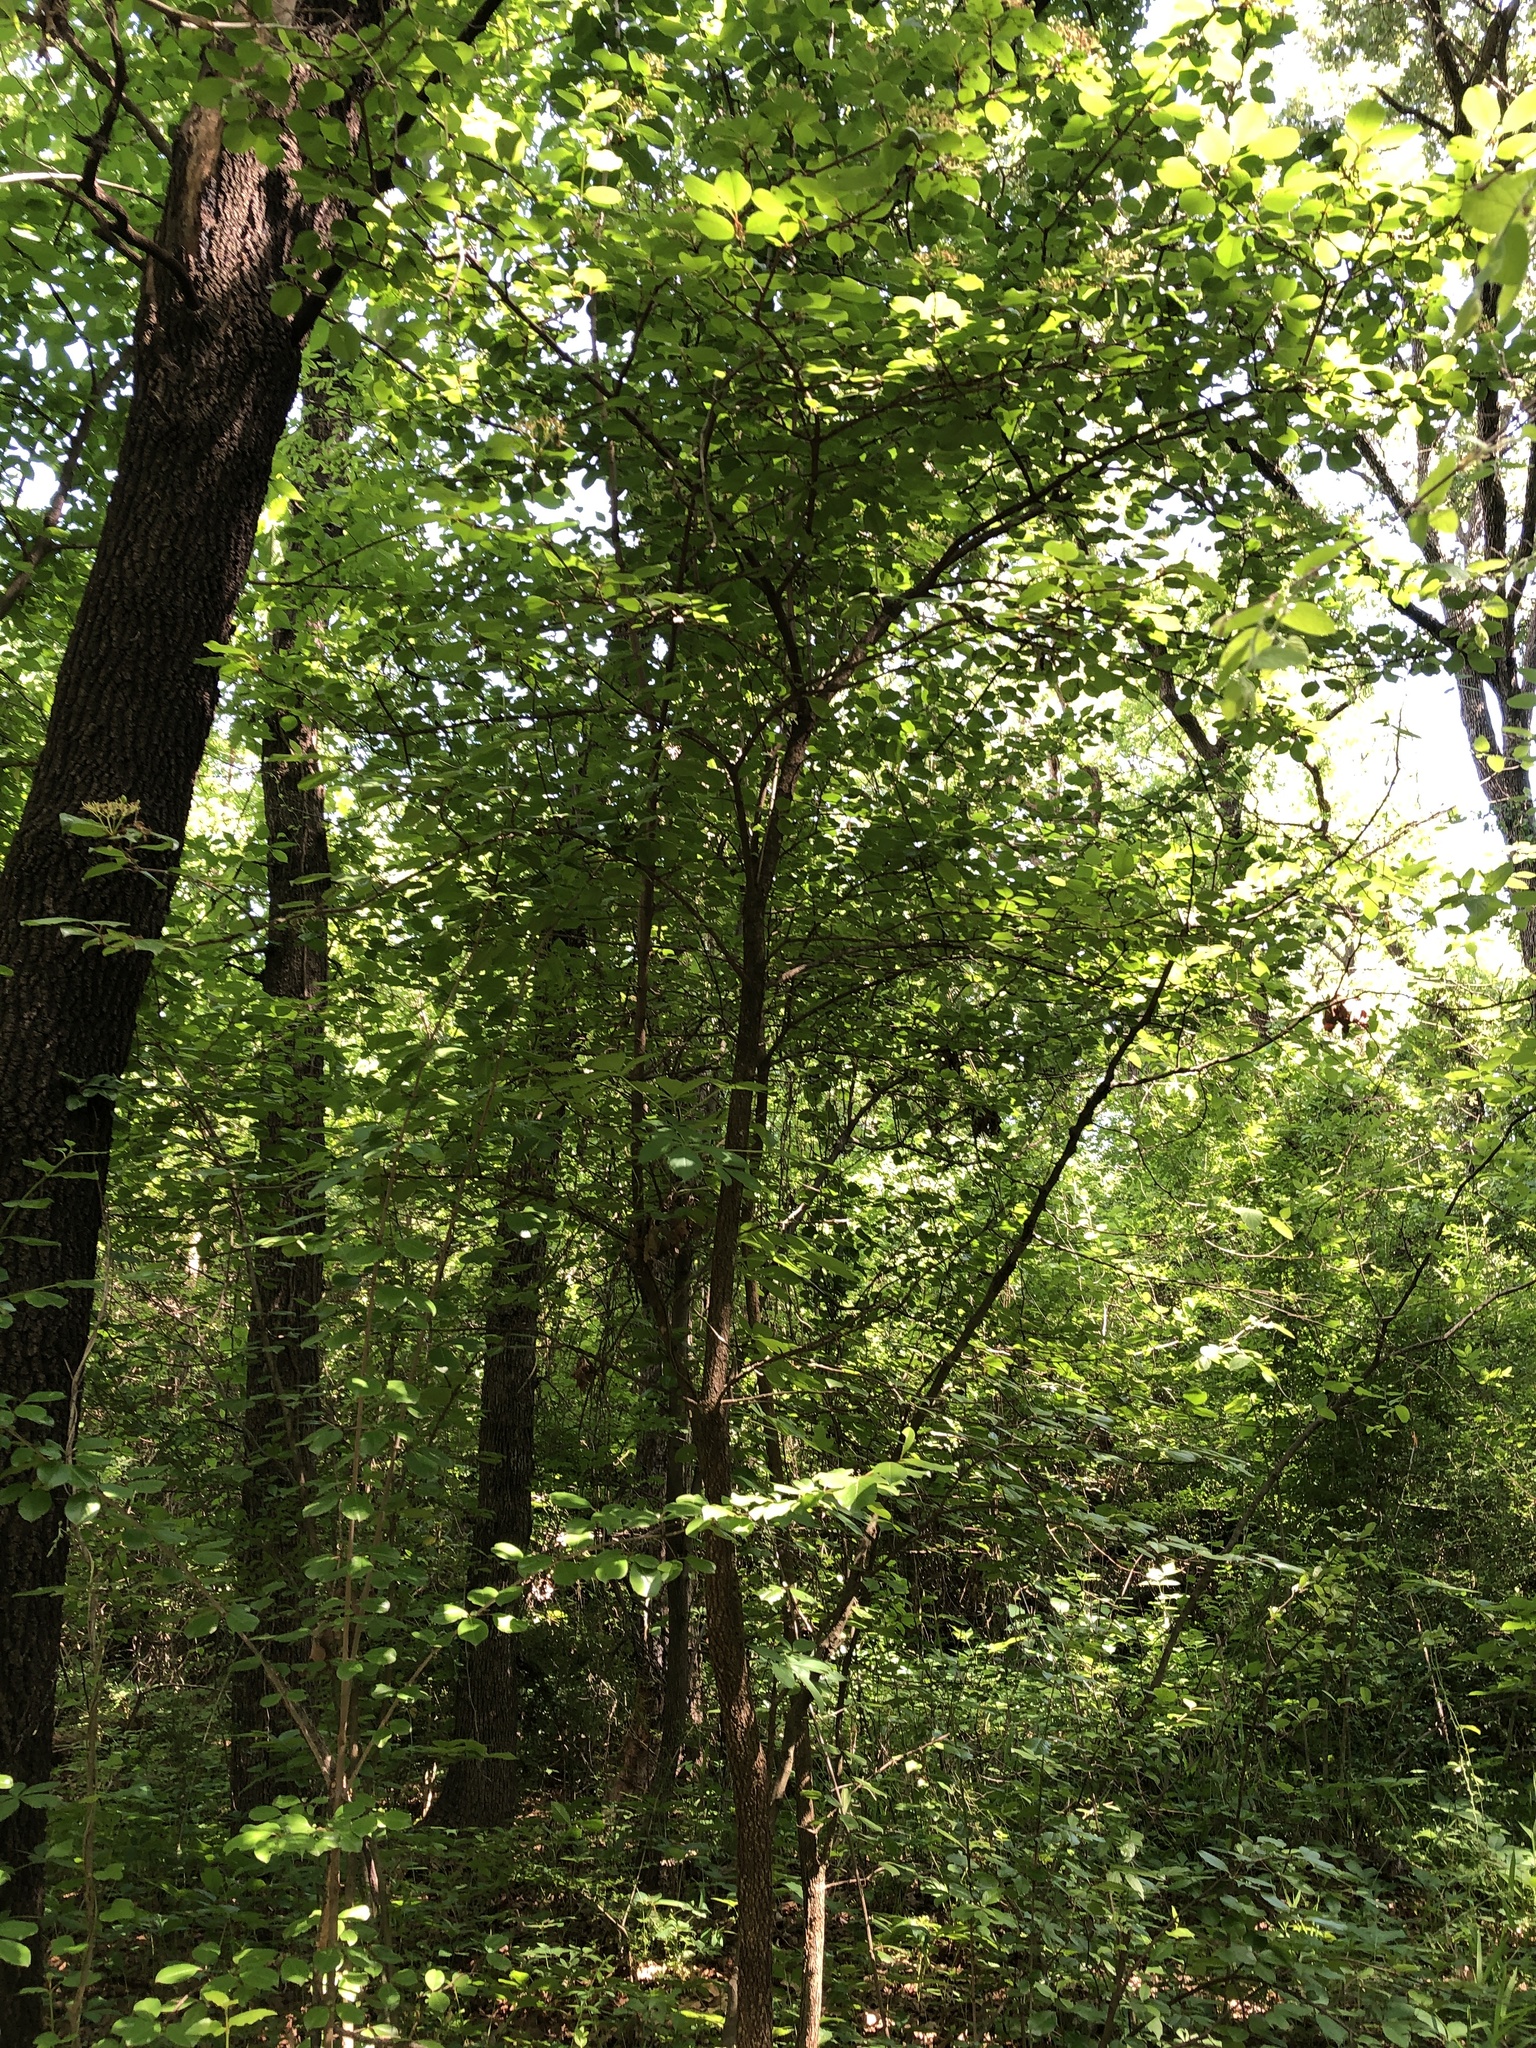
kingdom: Plantae
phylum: Tracheophyta
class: Magnoliopsida
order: Dipsacales
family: Viburnaceae
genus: Viburnum
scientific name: Viburnum rufidulum
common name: Blue haw
